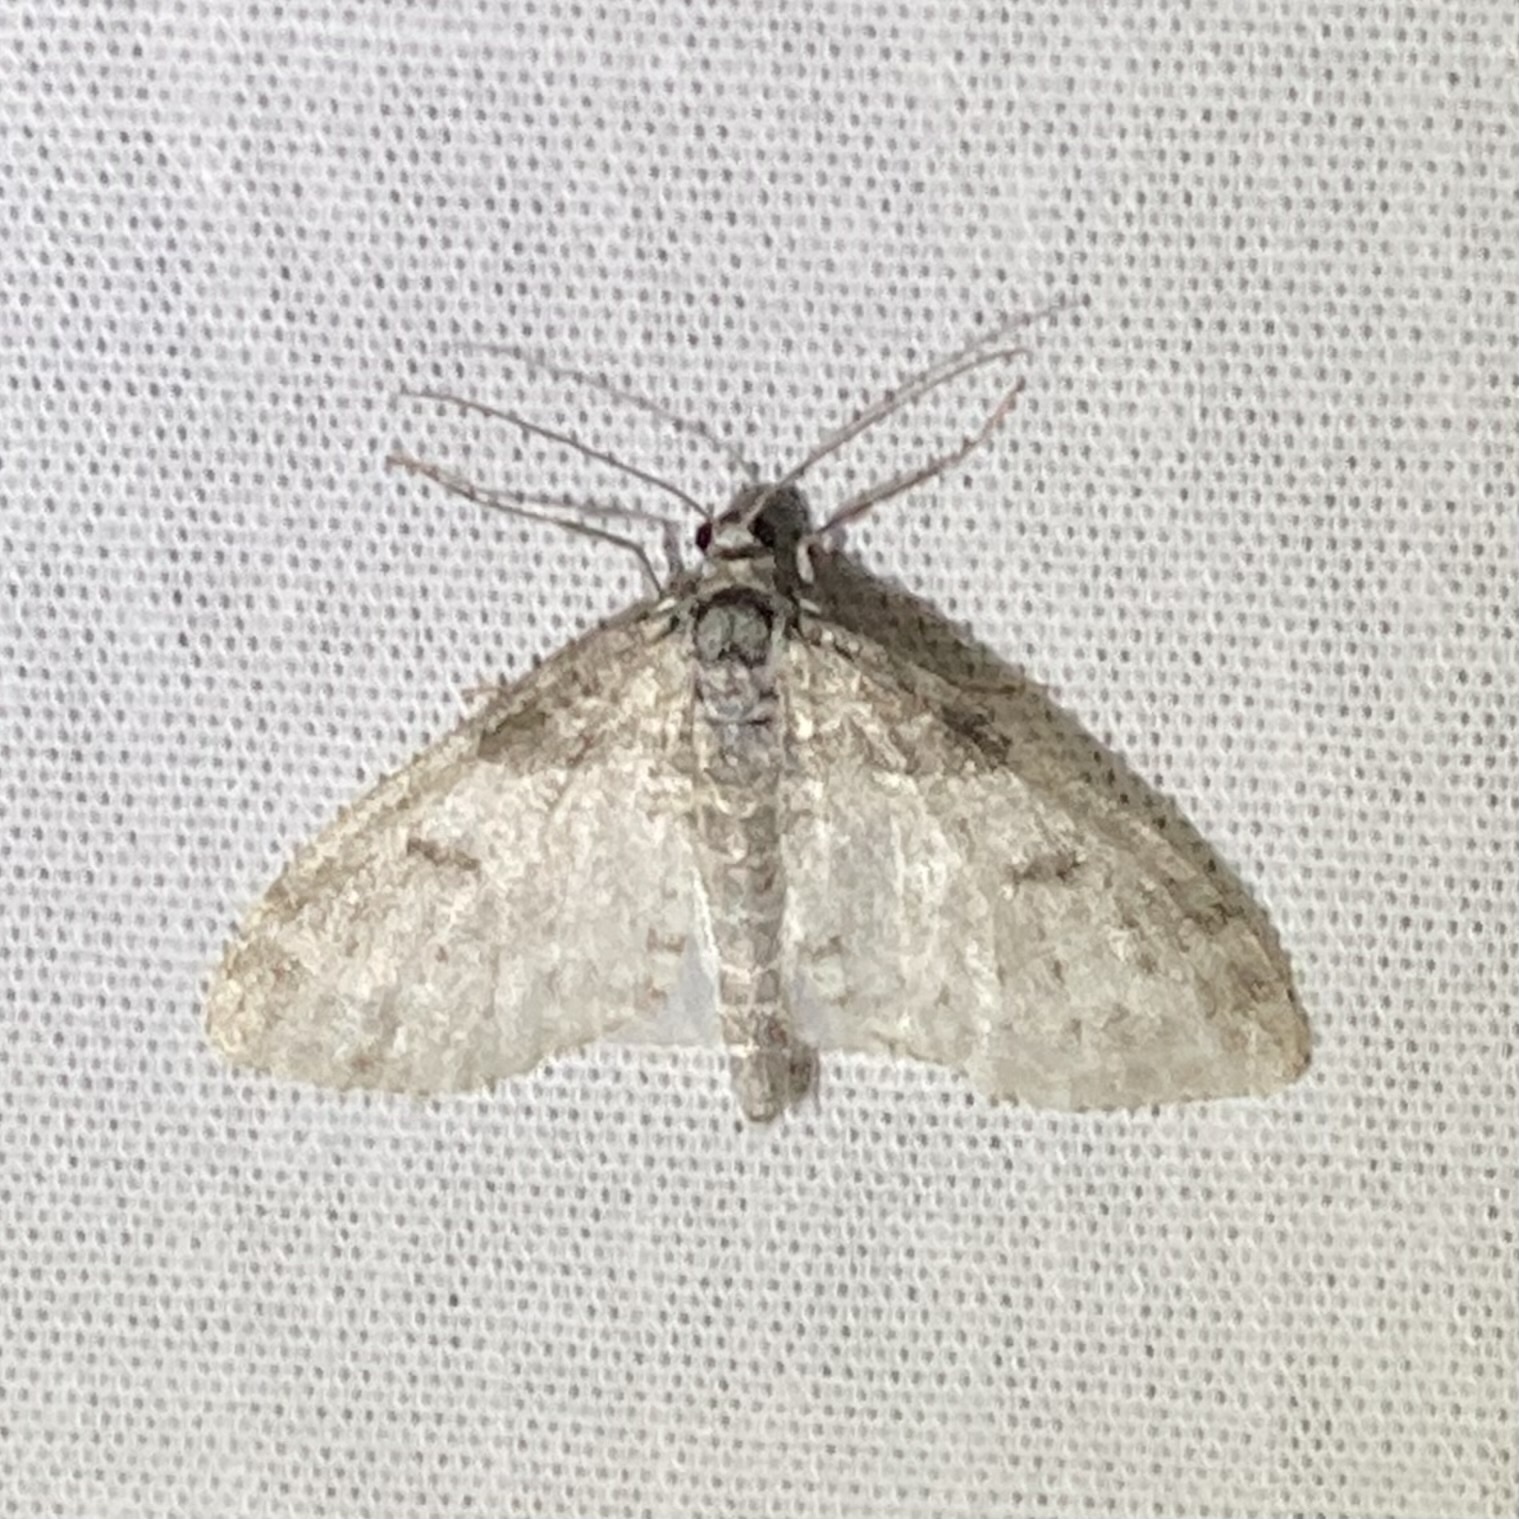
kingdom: Animalia
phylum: Arthropoda
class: Insecta
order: Lepidoptera
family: Geometridae
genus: Lobophora
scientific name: Lobophora nivigerata
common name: Powdered bigwing
